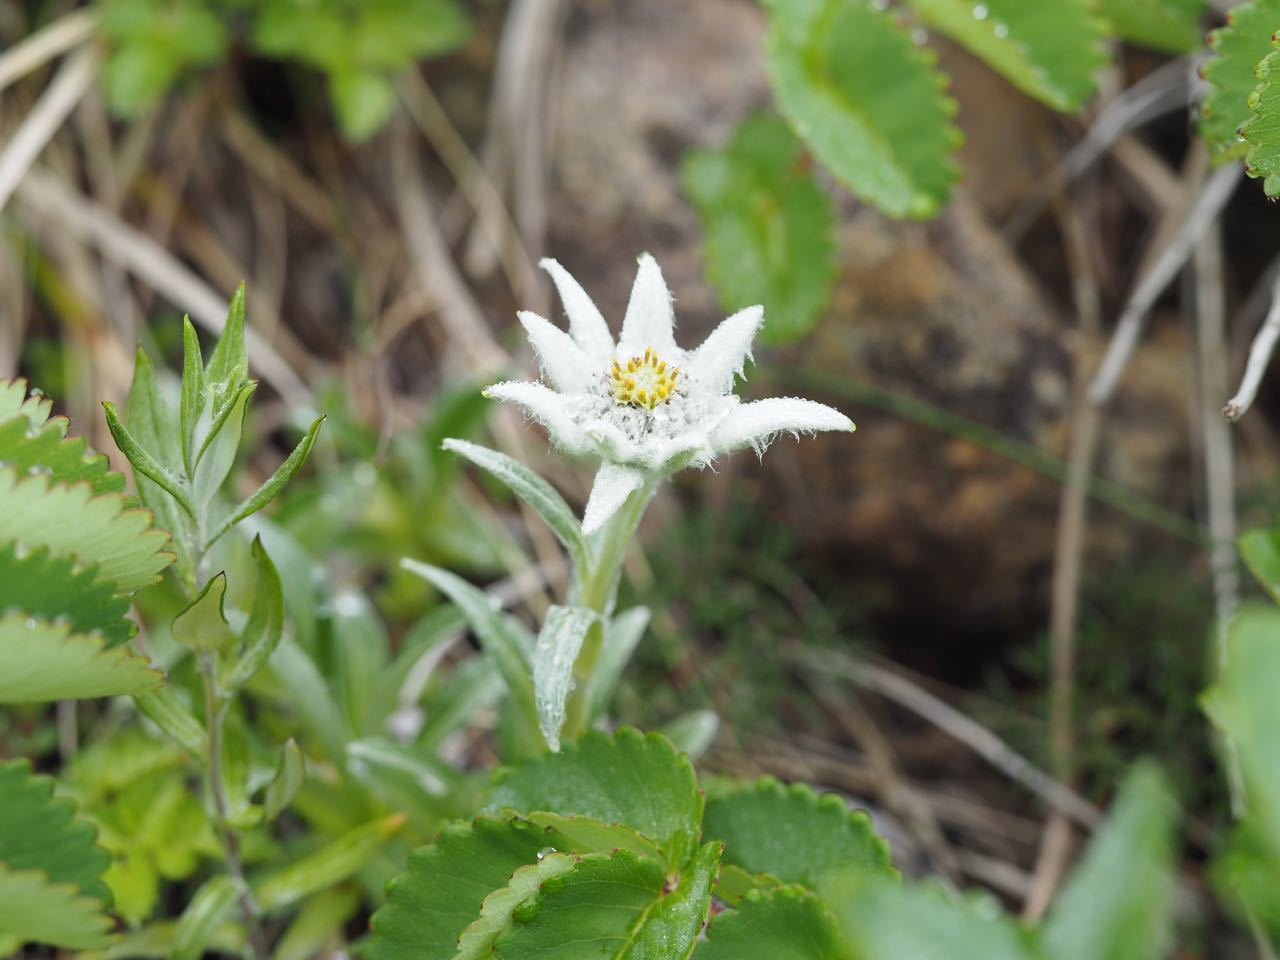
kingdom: Plantae
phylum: Tracheophyta
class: Magnoliopsida
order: Asterales
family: Asteraceae
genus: Leontopodium
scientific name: Leontopodium hayachinense
